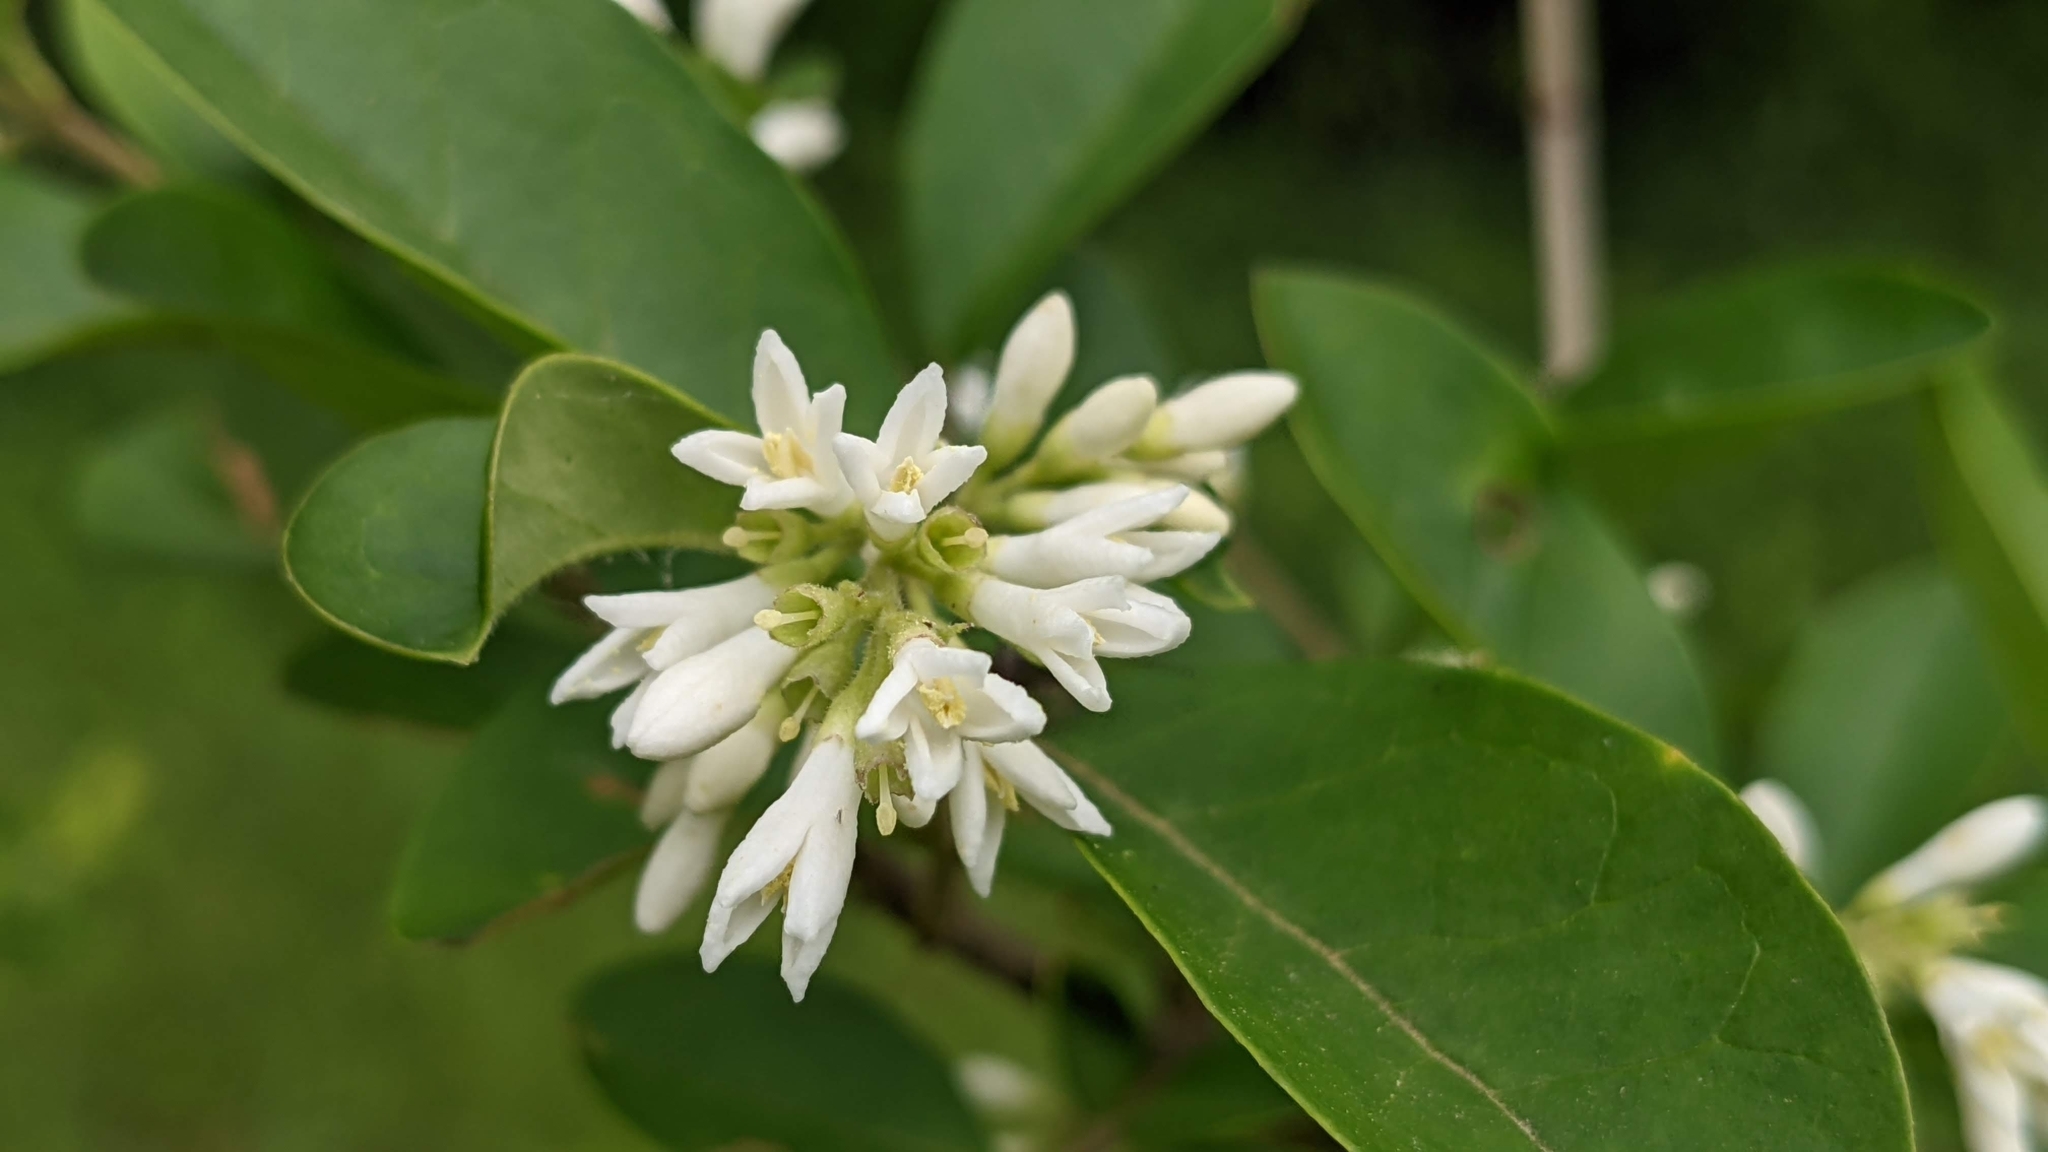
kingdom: Plantae
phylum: Tracheophyta
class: Magnoliopsida
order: Lamiales
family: Oleaceae
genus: Ligustrum
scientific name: Ligustrum obtusifolium
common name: Border privet
